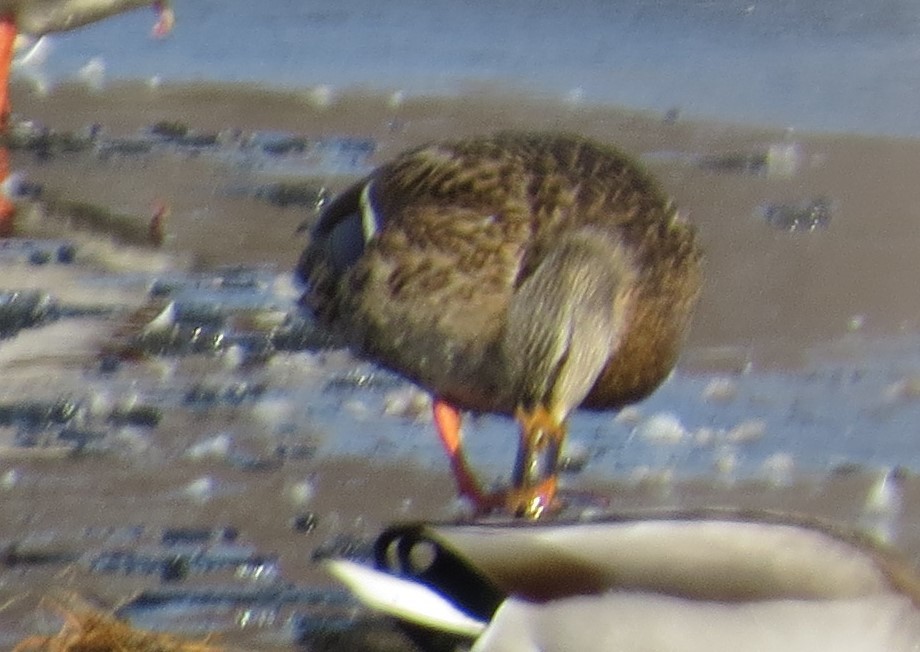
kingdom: Animalia
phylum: Chordata
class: Aves
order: Anseriformes
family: Anatidae
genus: Anas
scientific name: Anas platyrhynchos
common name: Mallard
